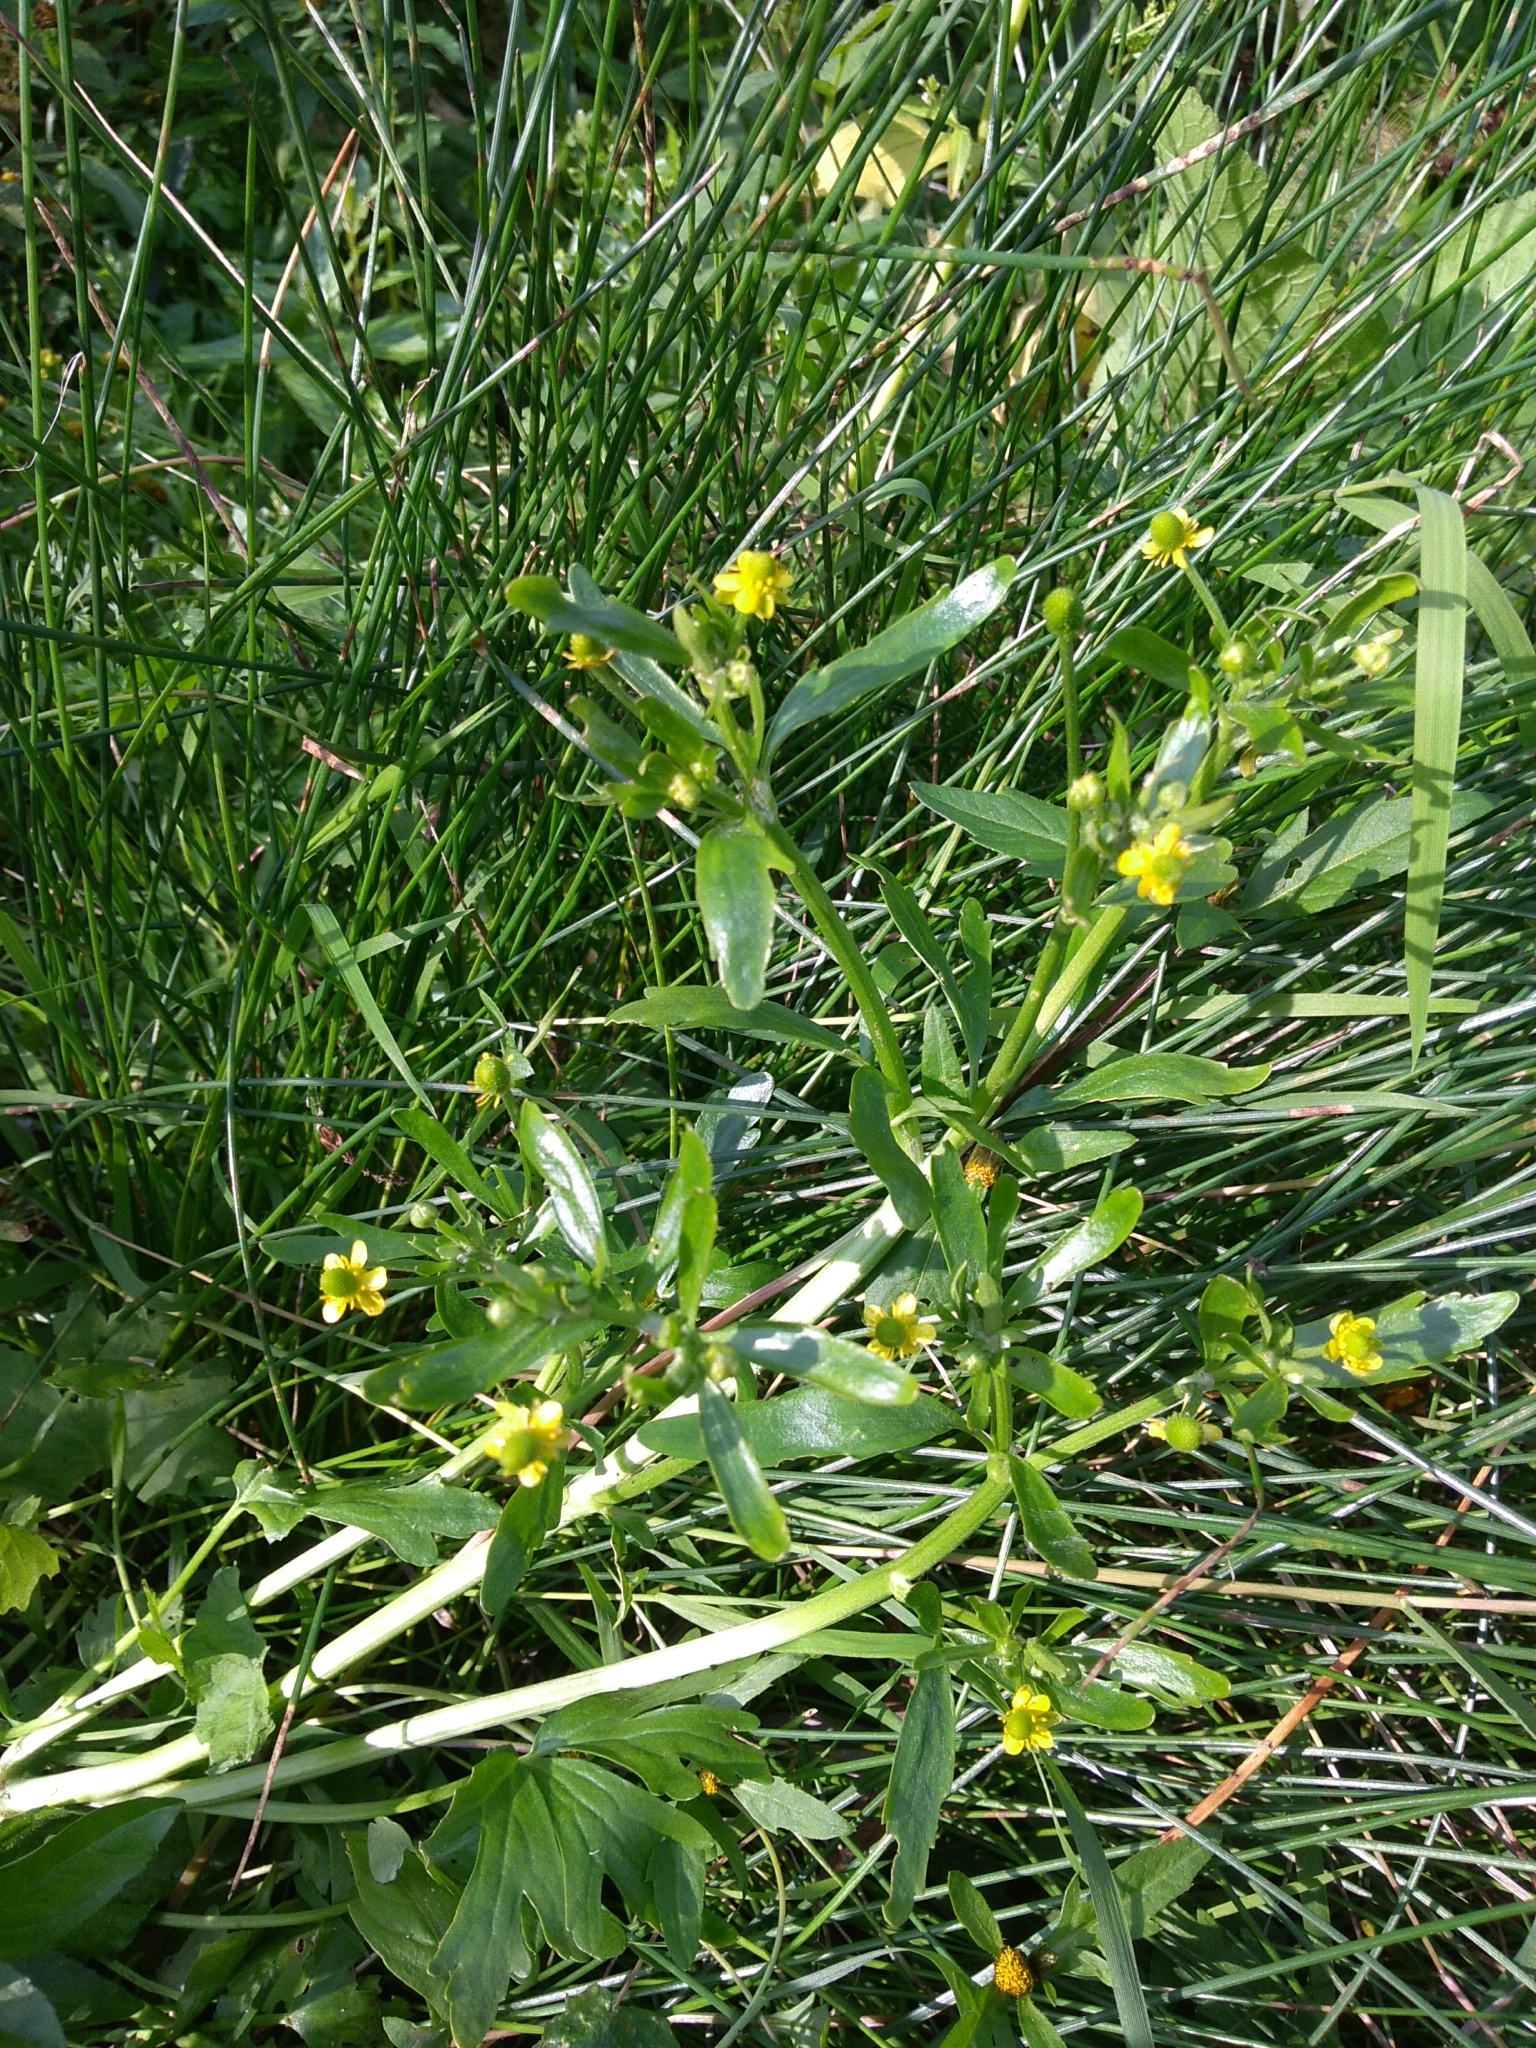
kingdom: Plantae
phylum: Tracheophyta
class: Magnoliopsida
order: Ranunculales
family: Ranunculaceae
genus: Ranunculus
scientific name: Ranunculus sceleratus
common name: Celery-leaved buttercup
